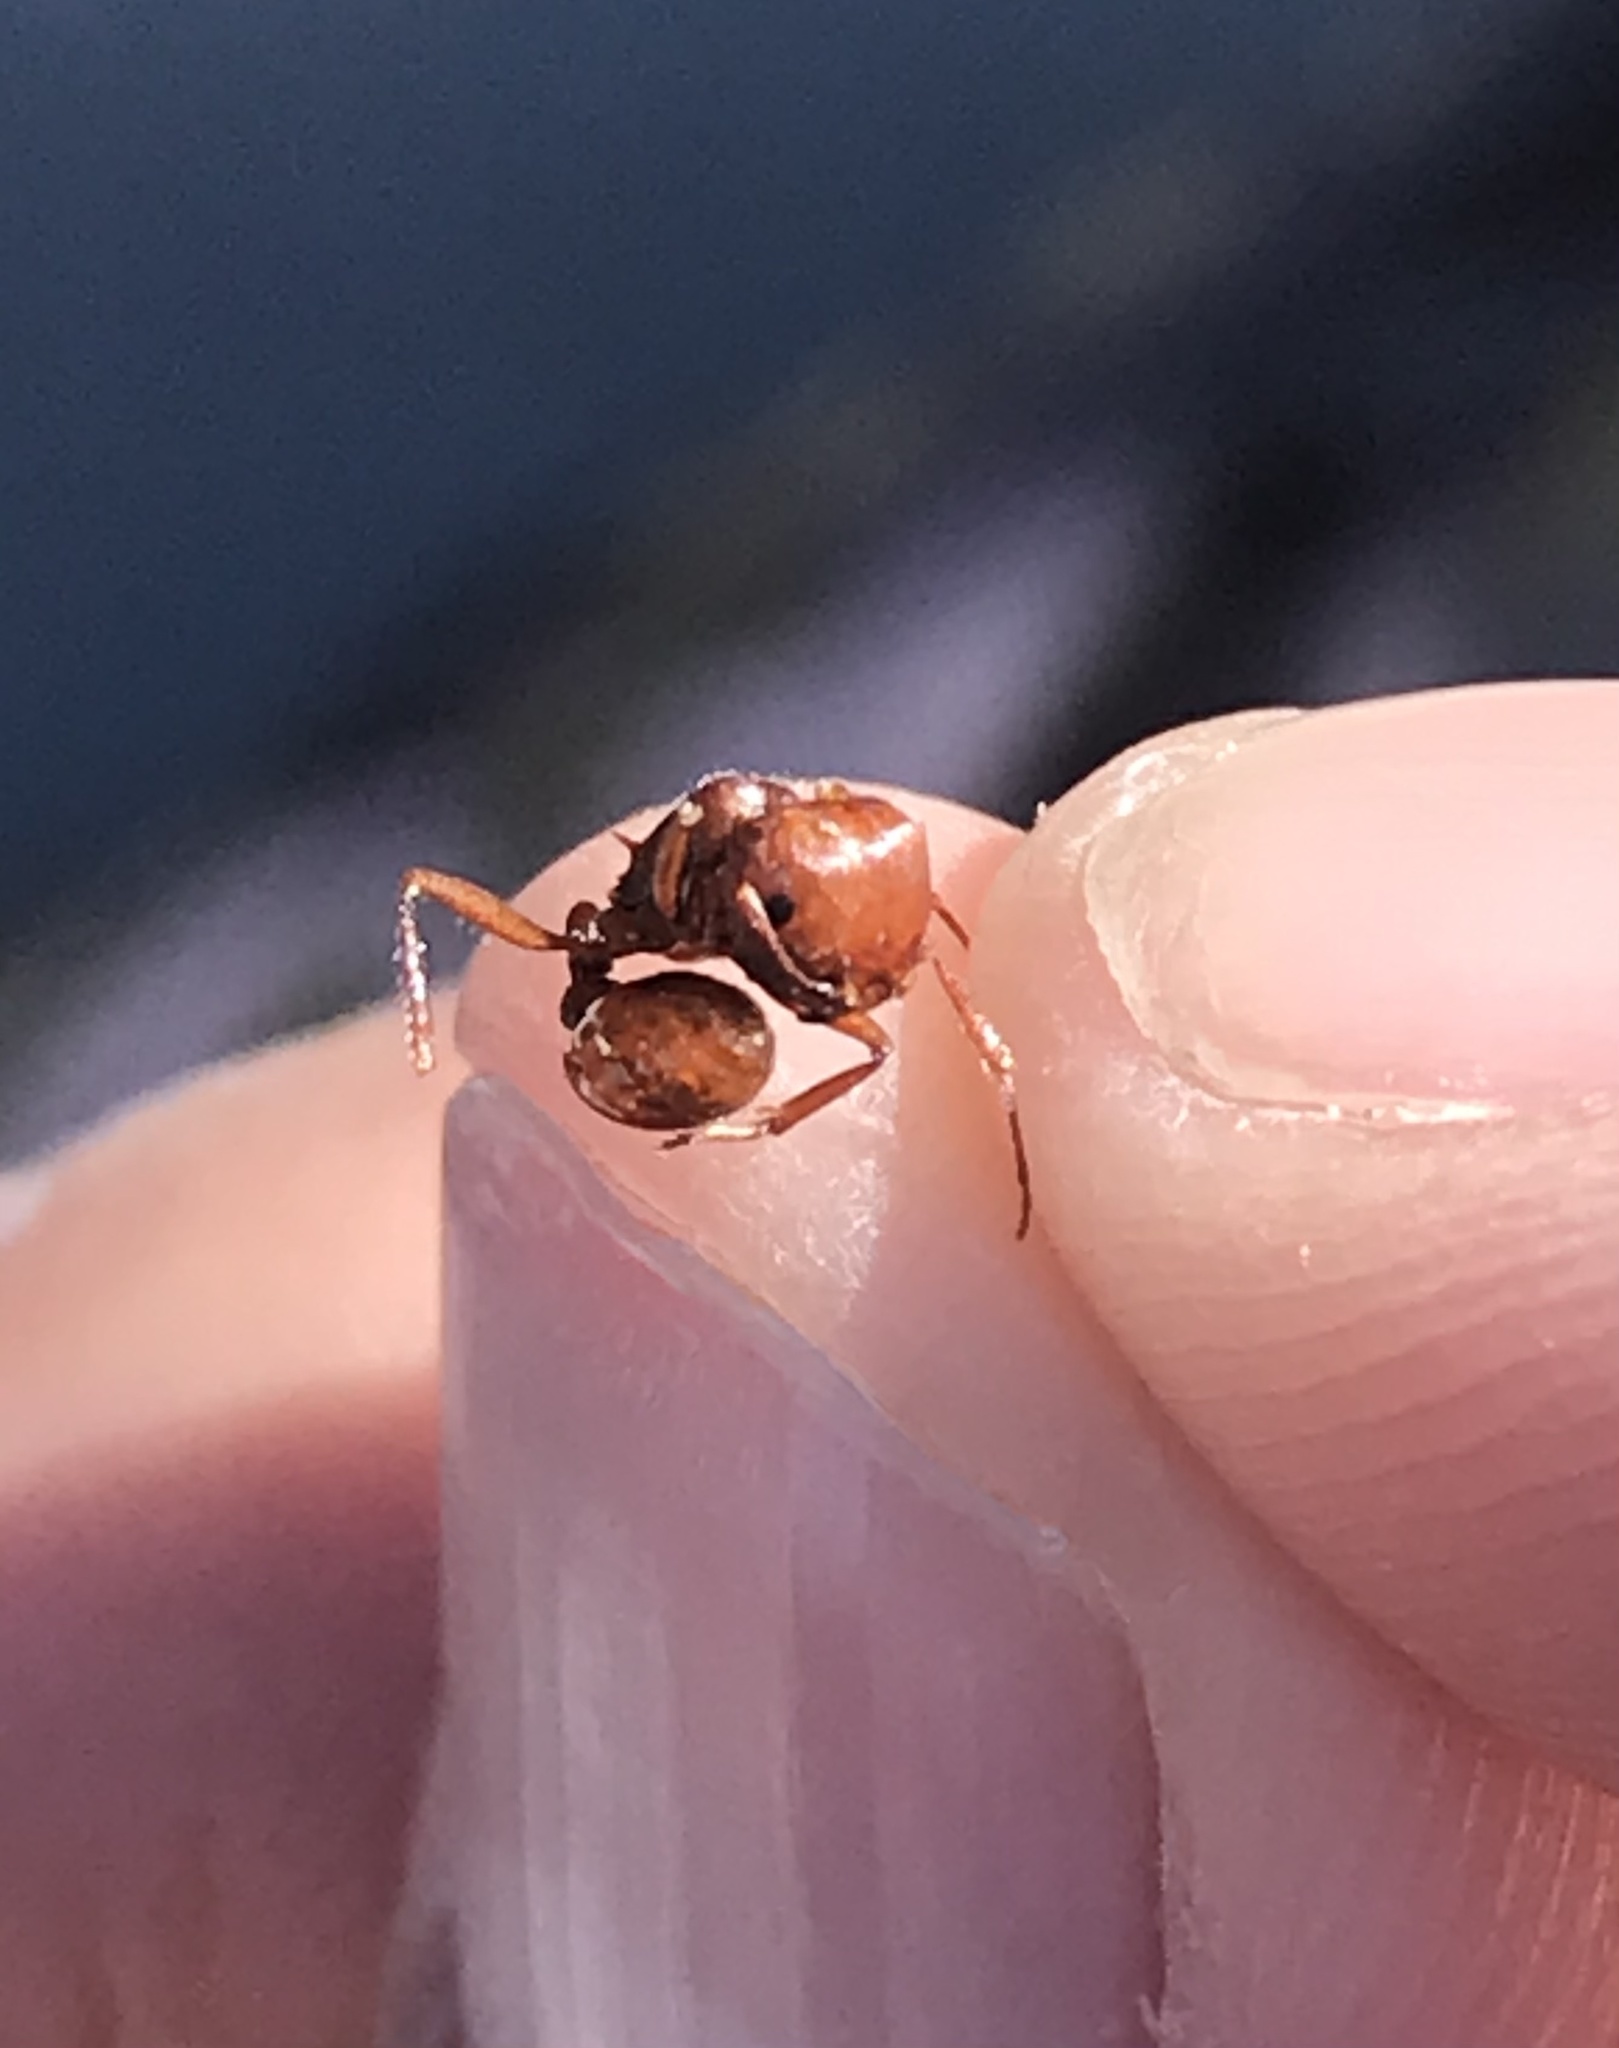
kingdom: Animalia
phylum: Arthropoda
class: Insecta
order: Hymenoptera
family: Formicidae
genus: Pogonomyrmex
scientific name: Pogonomyrmex barbatus
